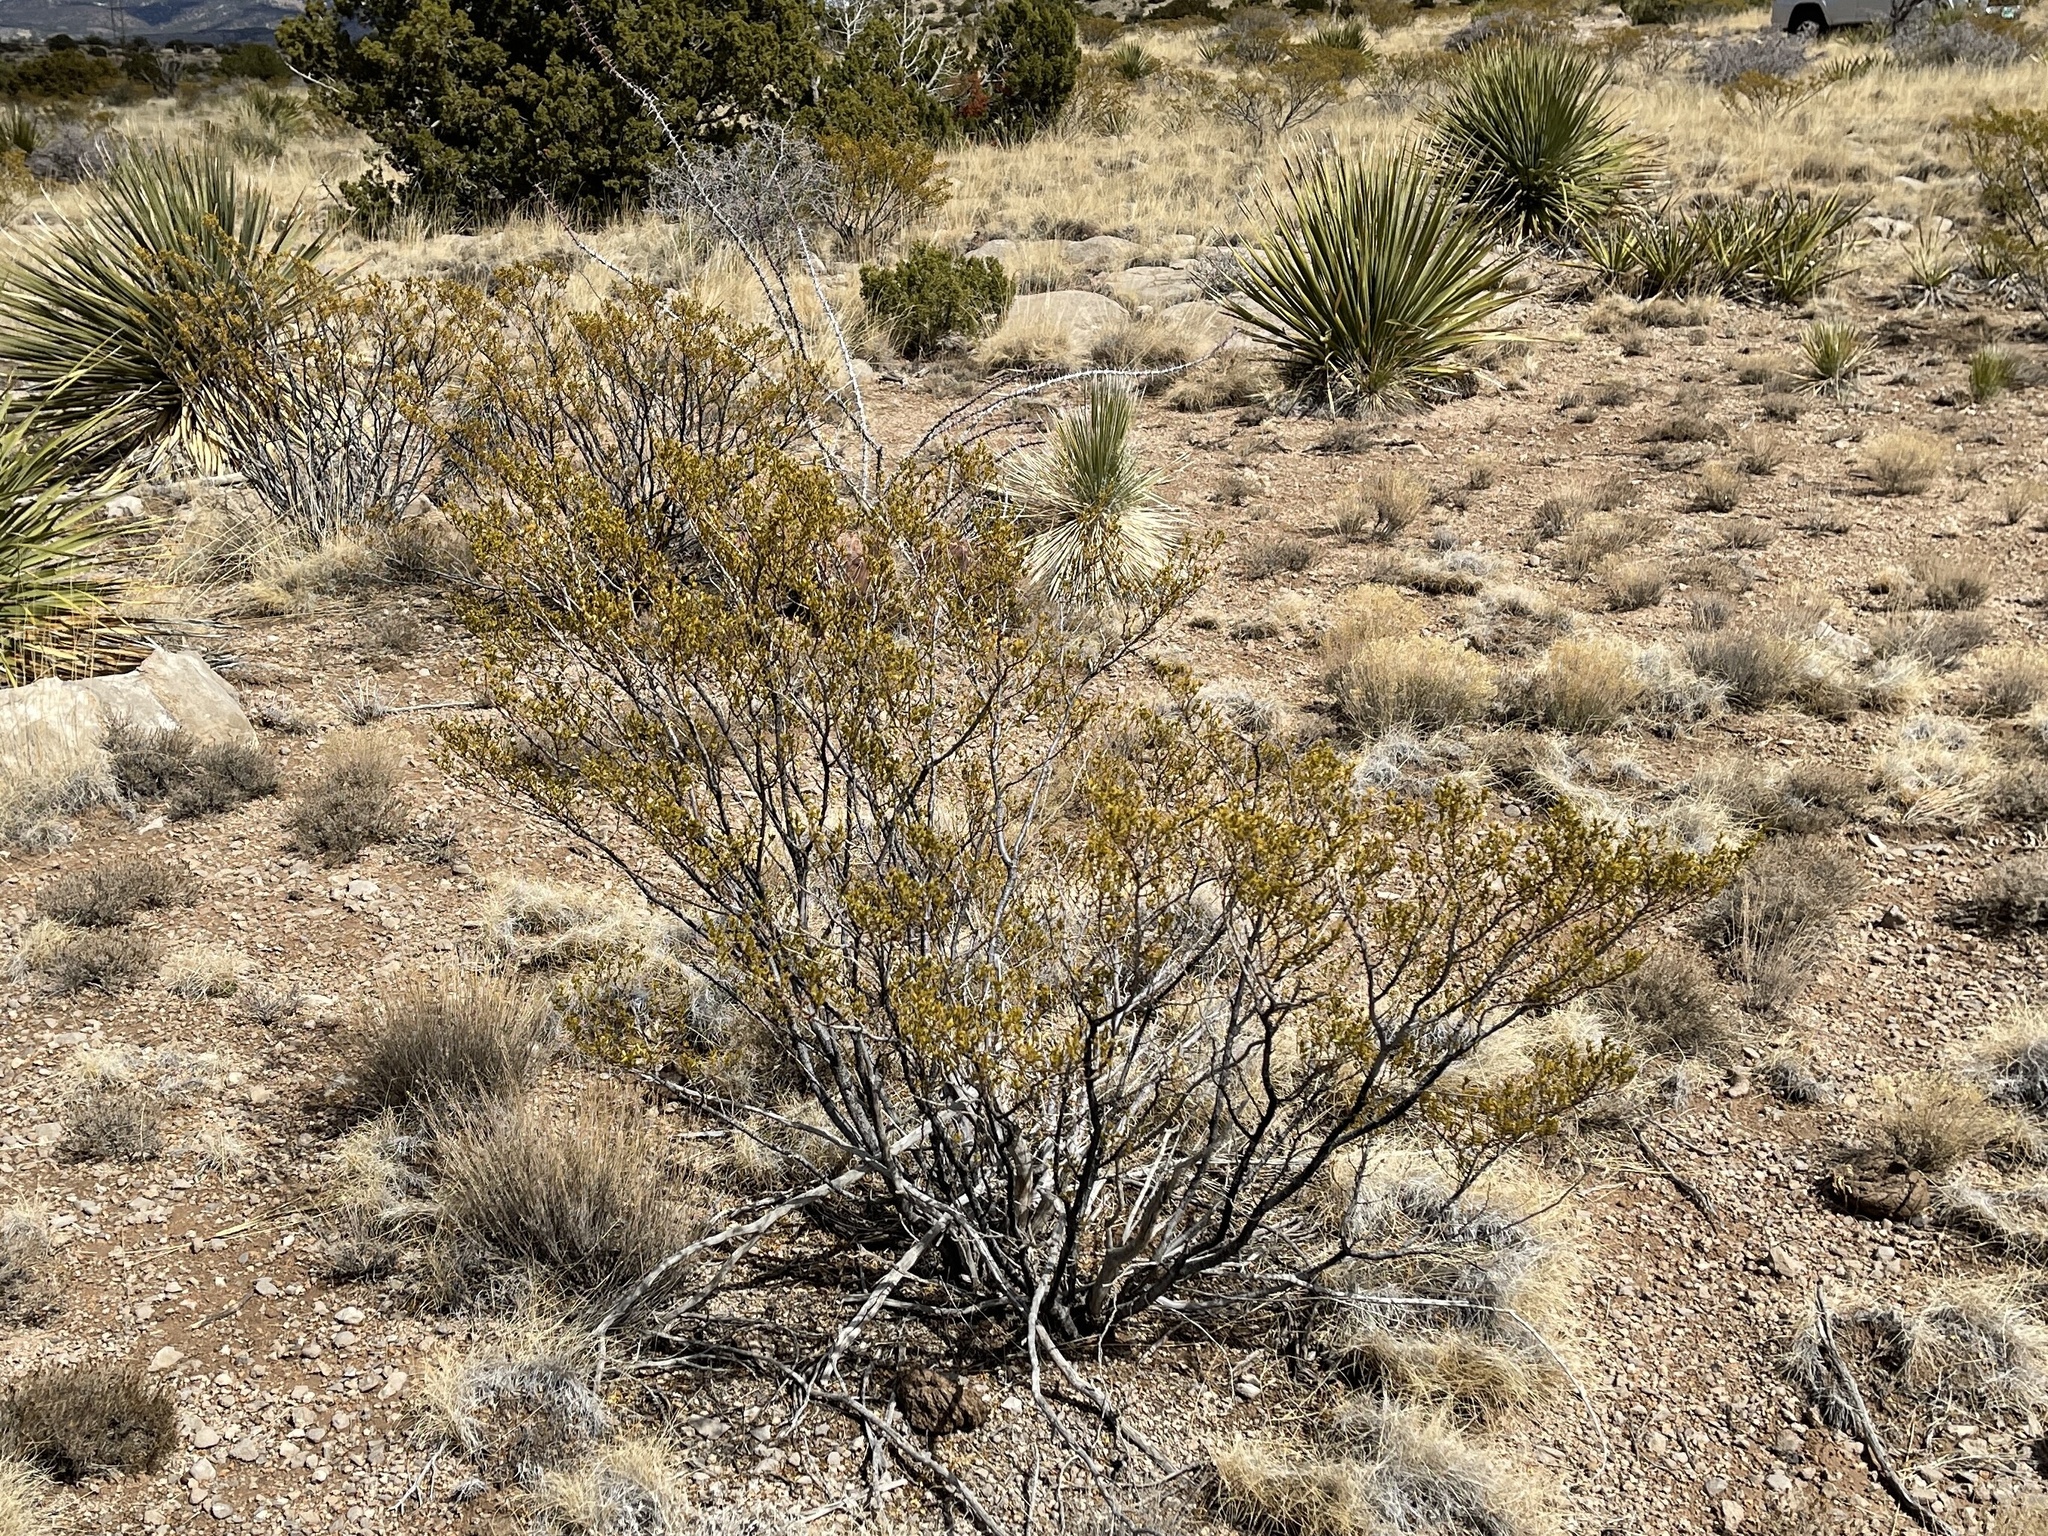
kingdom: Plantae
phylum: Tracheophyta
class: Magnoliopsida
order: Zygophyllales
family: Zygophyllaceae
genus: Larrea
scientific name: Larrea tridentata
